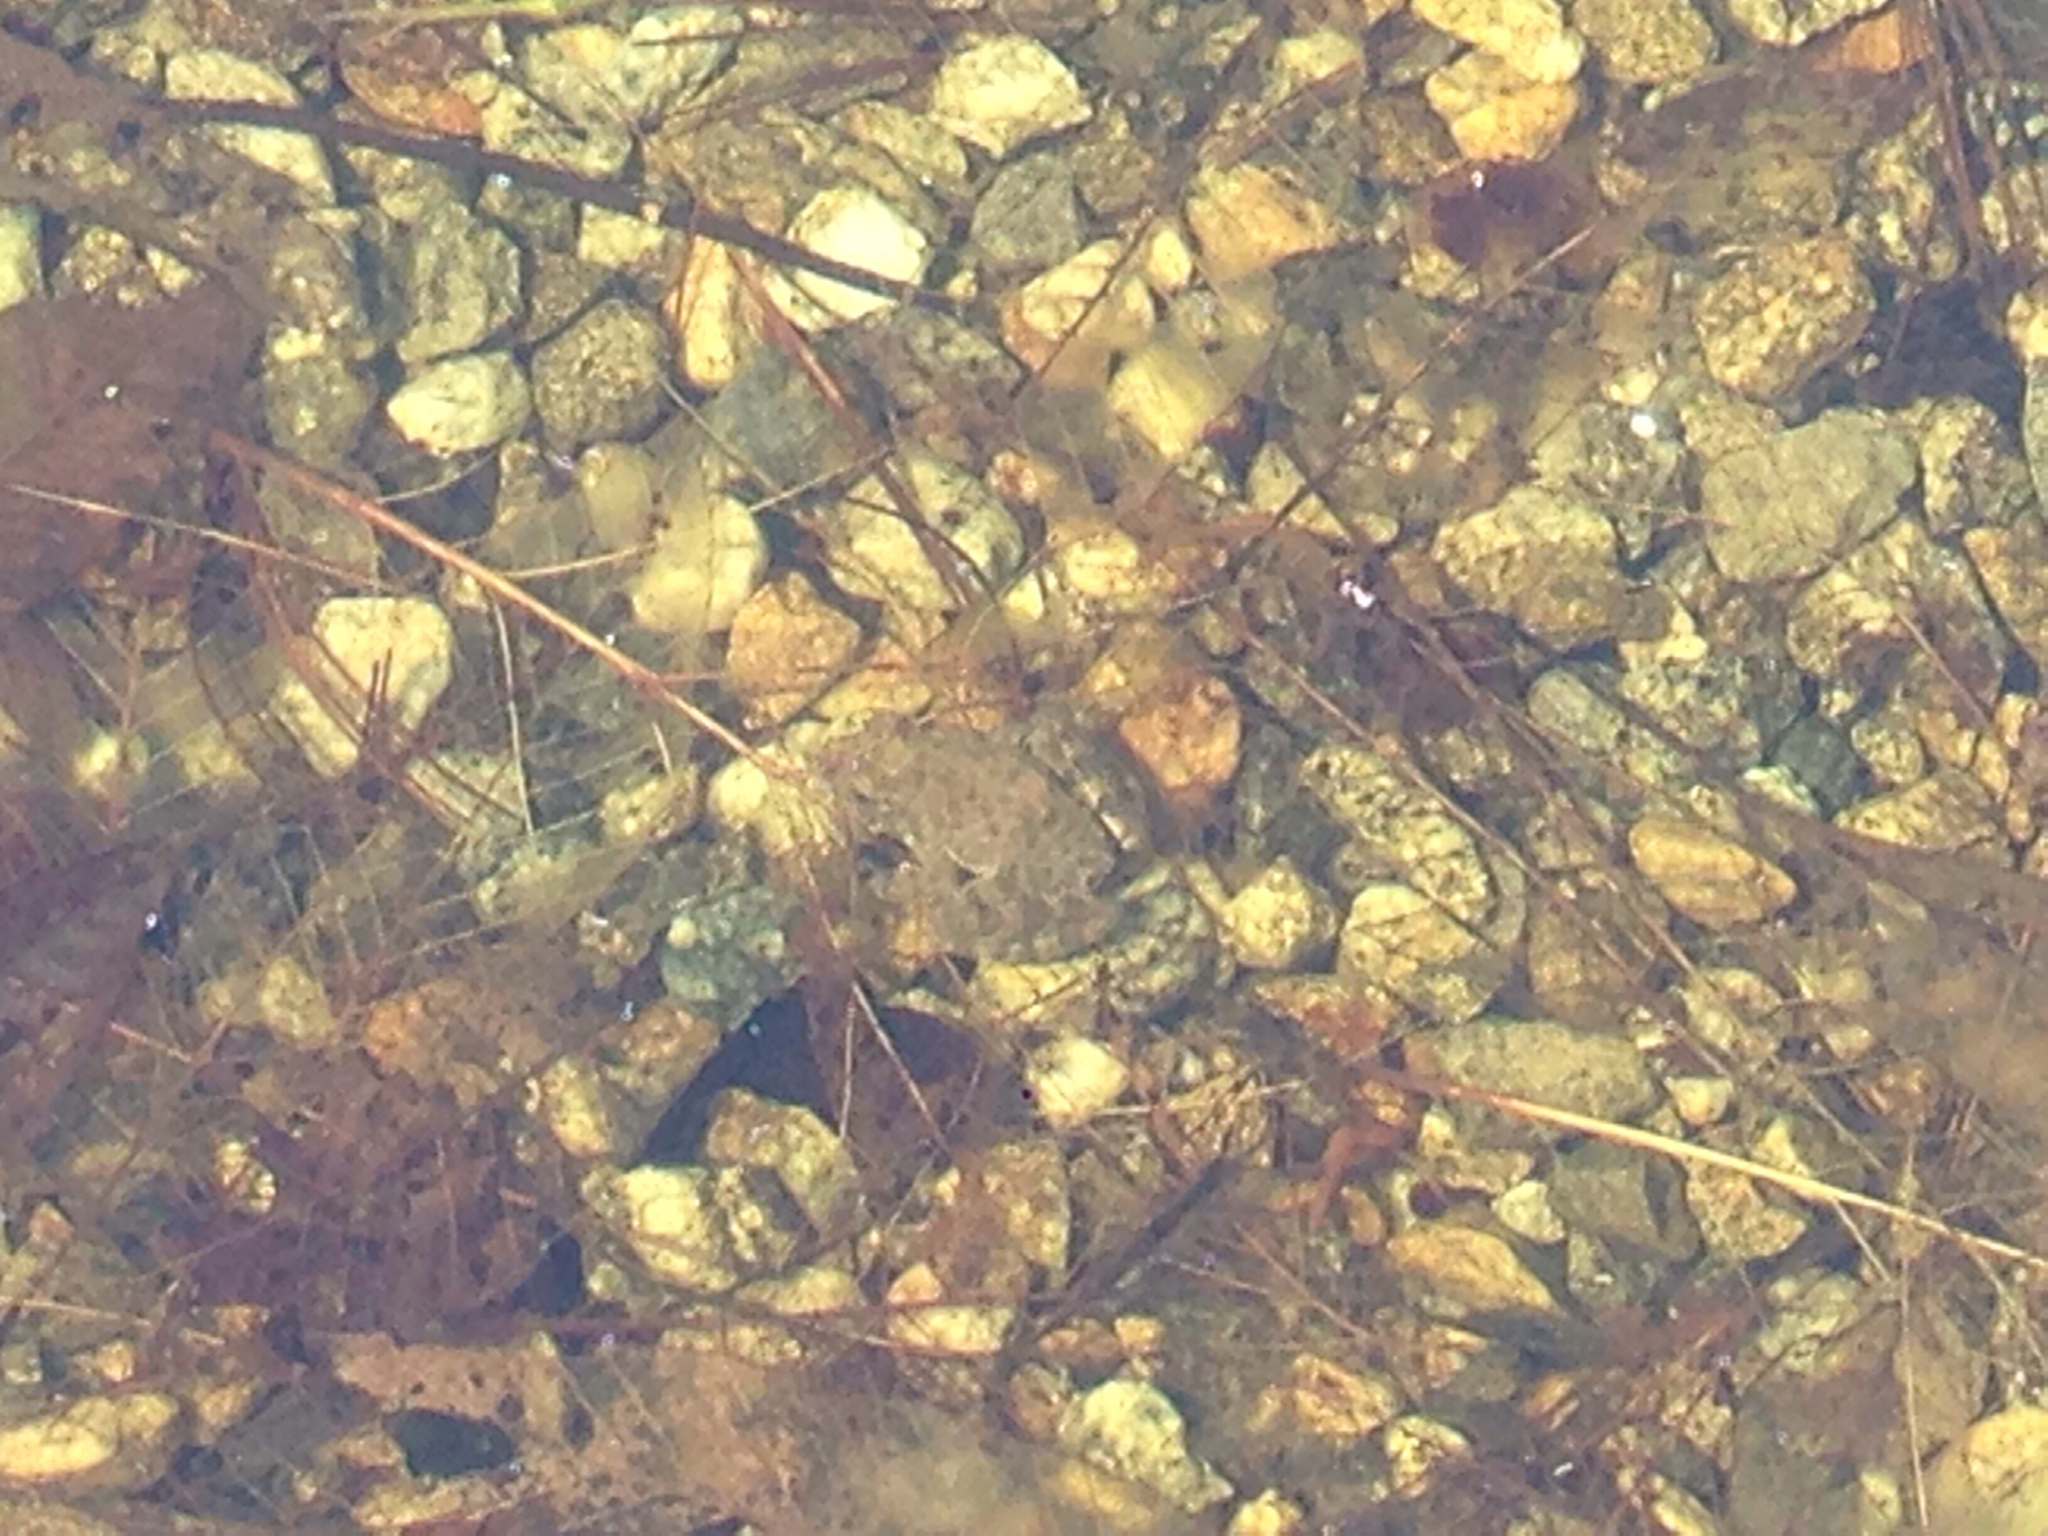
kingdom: Animalia
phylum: Chordata
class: Amphibia
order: Anura
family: Ranidae
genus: Glandirana
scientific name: Glandirana emeljanovi
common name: Northeast china rough-skinned frog
